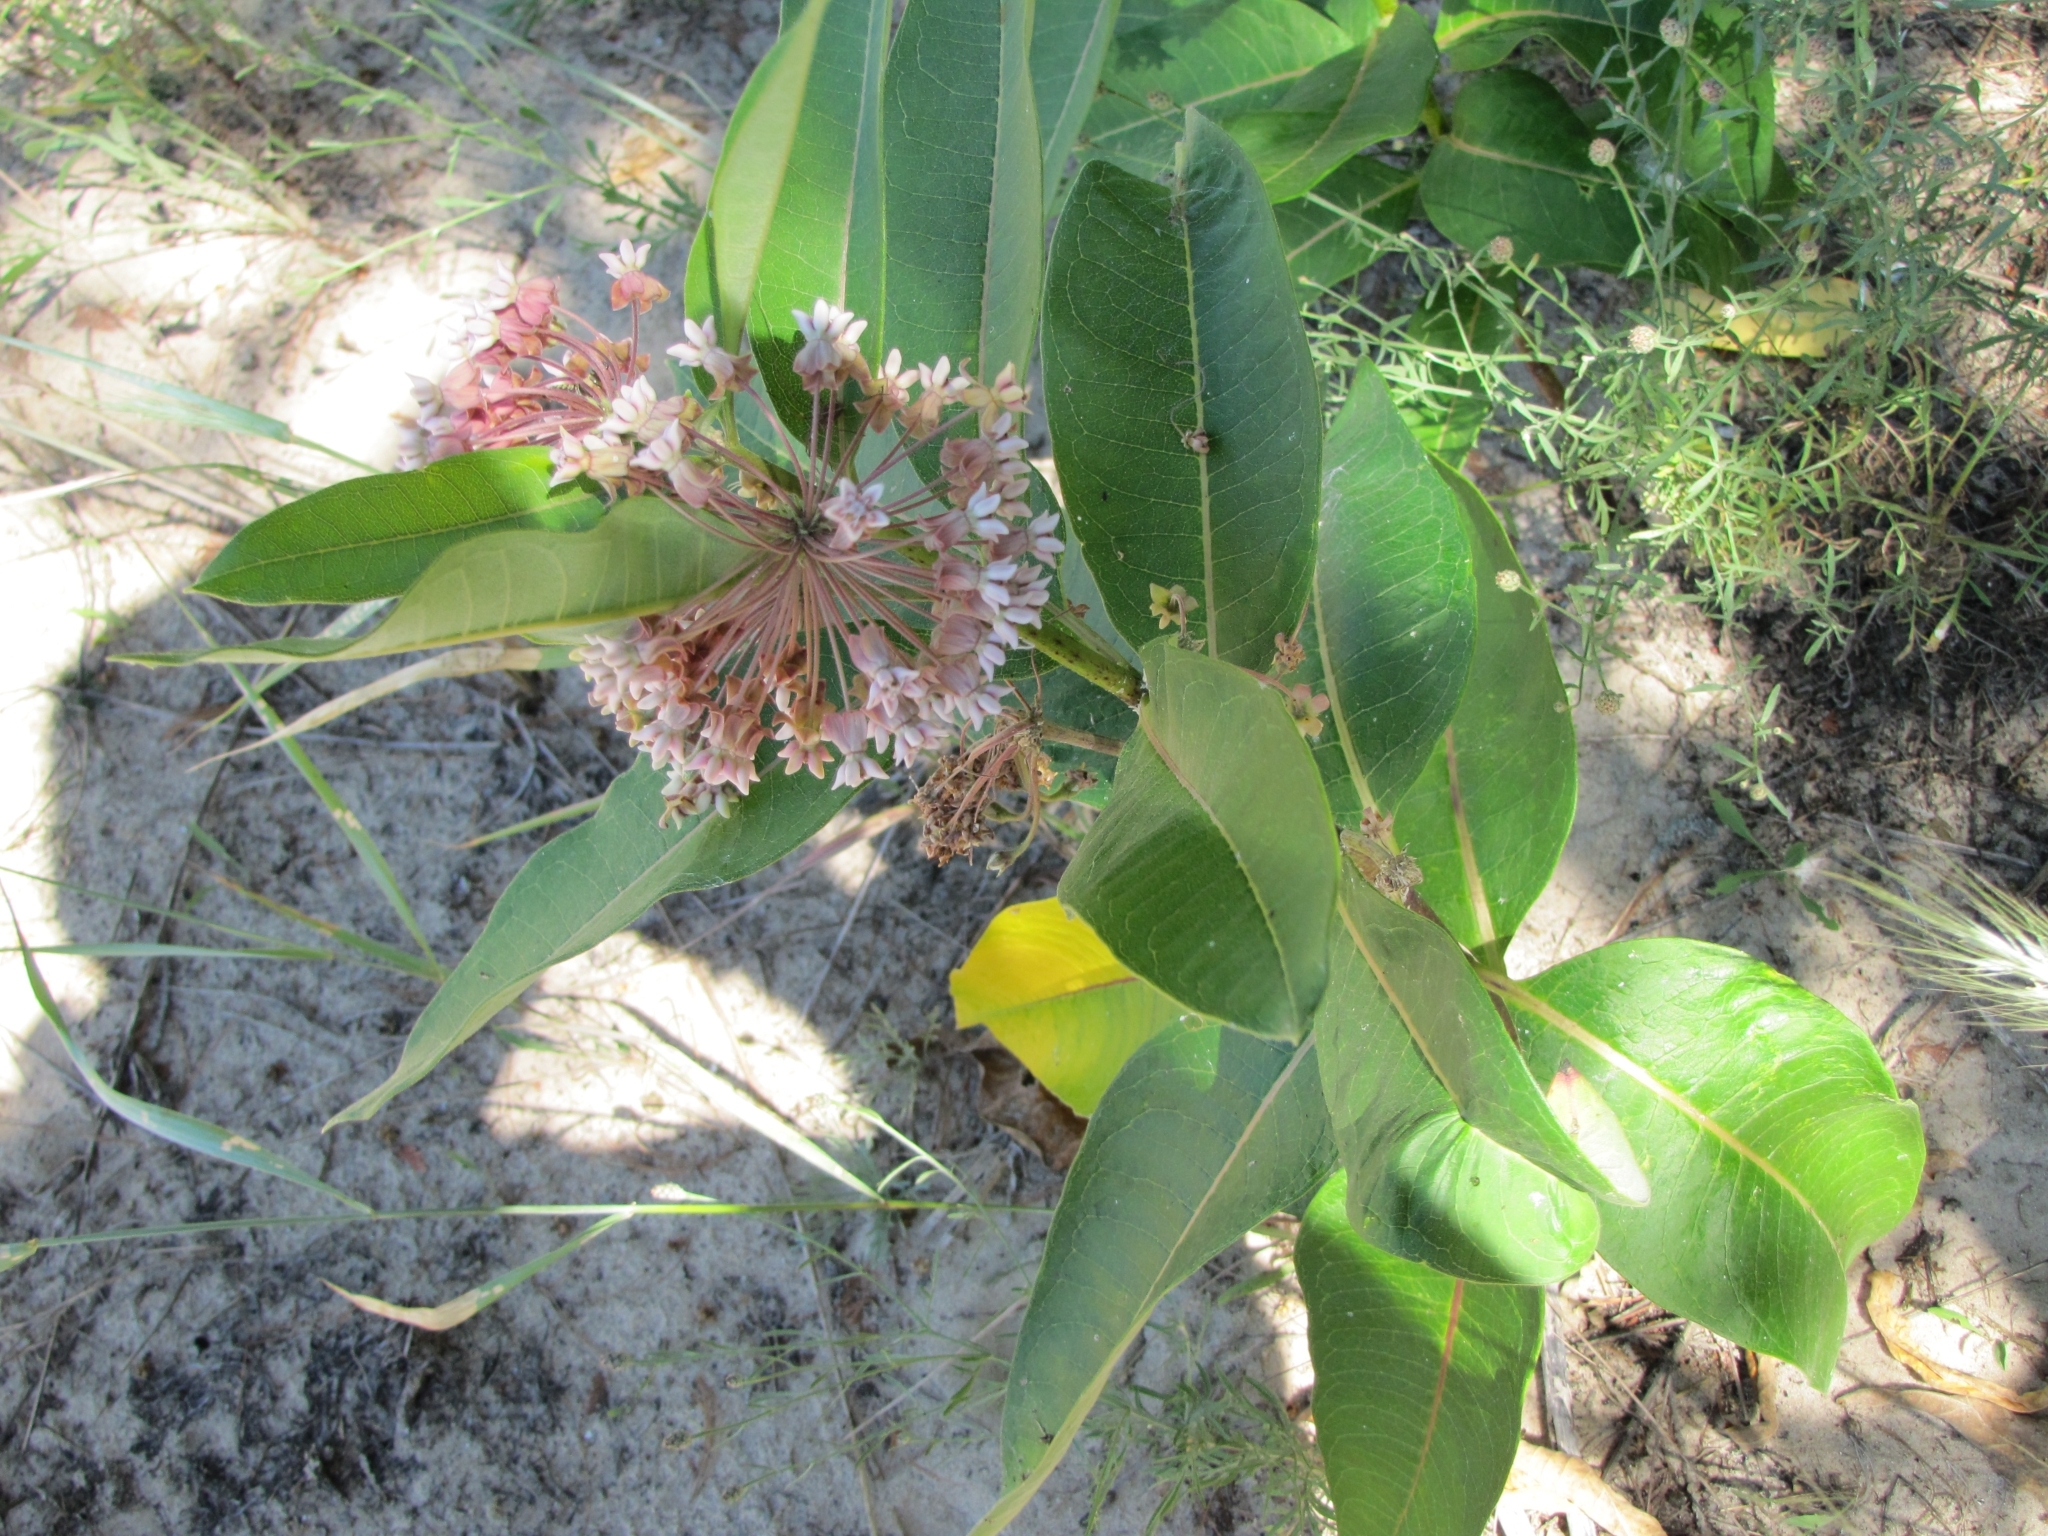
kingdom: Plantae
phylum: Tracheophyta
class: Magnoliopsida
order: Gentianales
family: Apocynaceae
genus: Asclepias
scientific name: Asclepias syriaca
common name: Common milkweed
